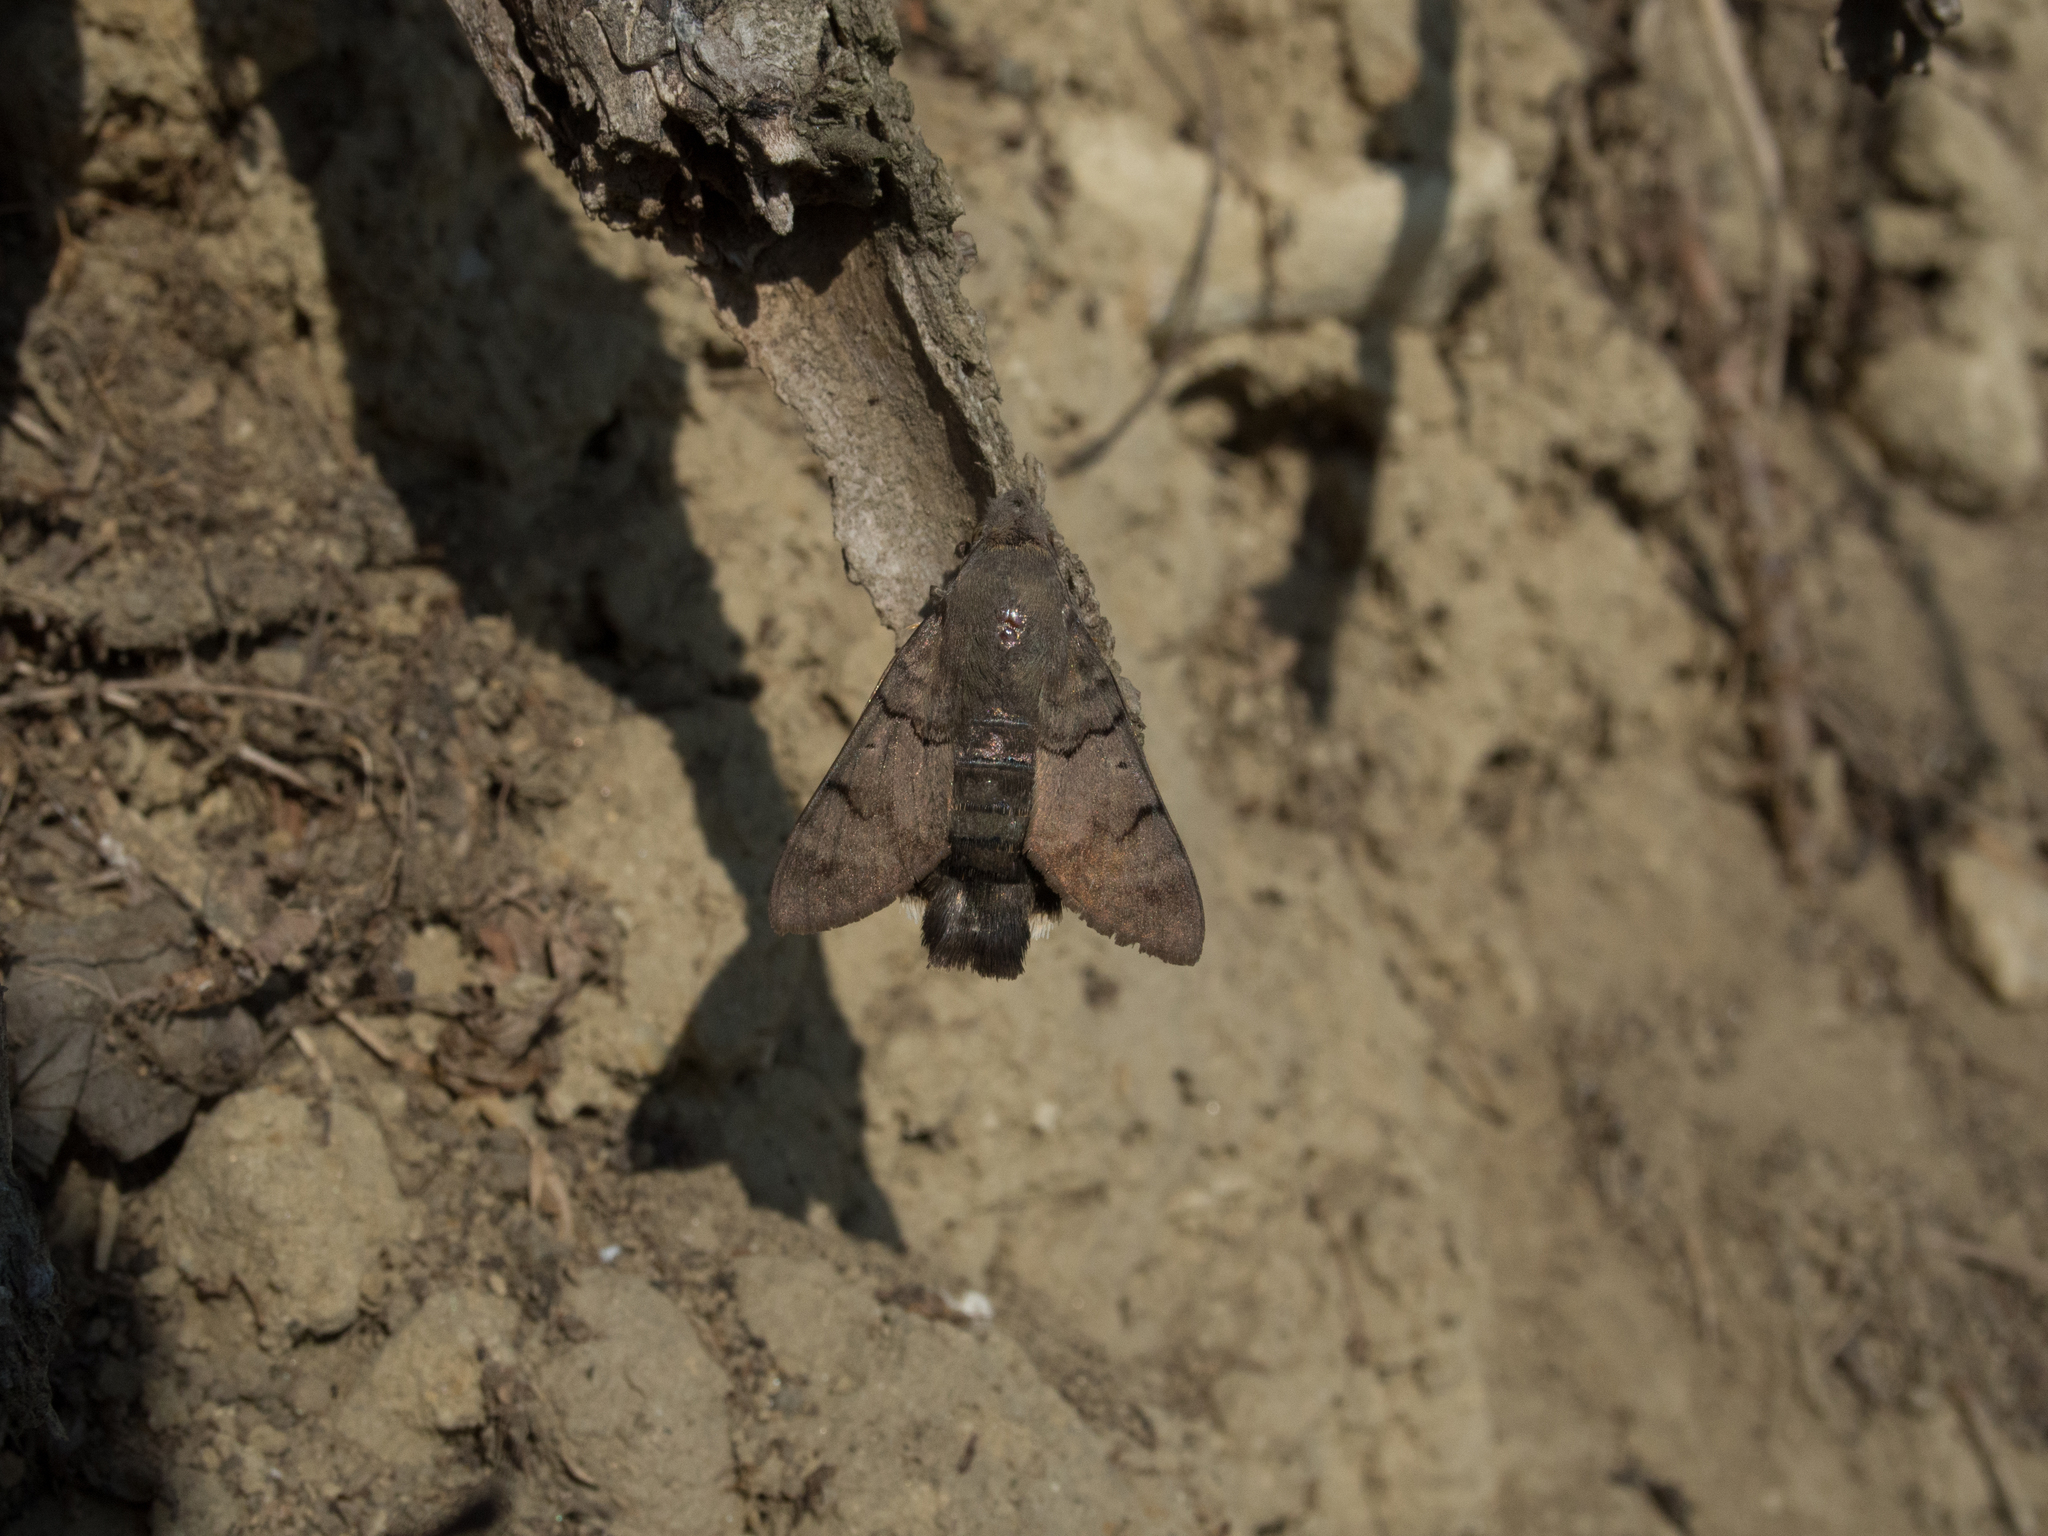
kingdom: Animalia
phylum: Arthropoda
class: Insecta
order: Lepidoptera
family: Sphingidae
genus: Macroglossum
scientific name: Macroglossum stellatarum
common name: Humming-bird hawk-moth
